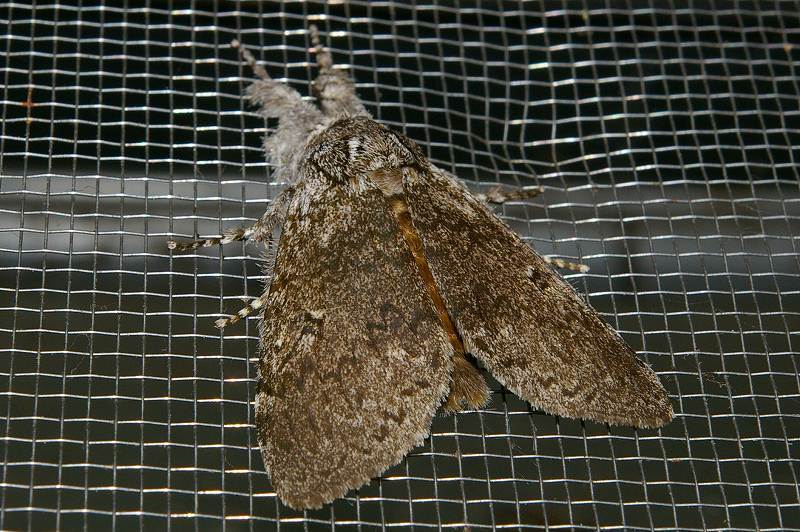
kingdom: Animalia
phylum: Arthropoda
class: Insecta
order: Lepidoptera
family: Erebidae
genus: Calliteara
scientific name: Calliteara taiwana
